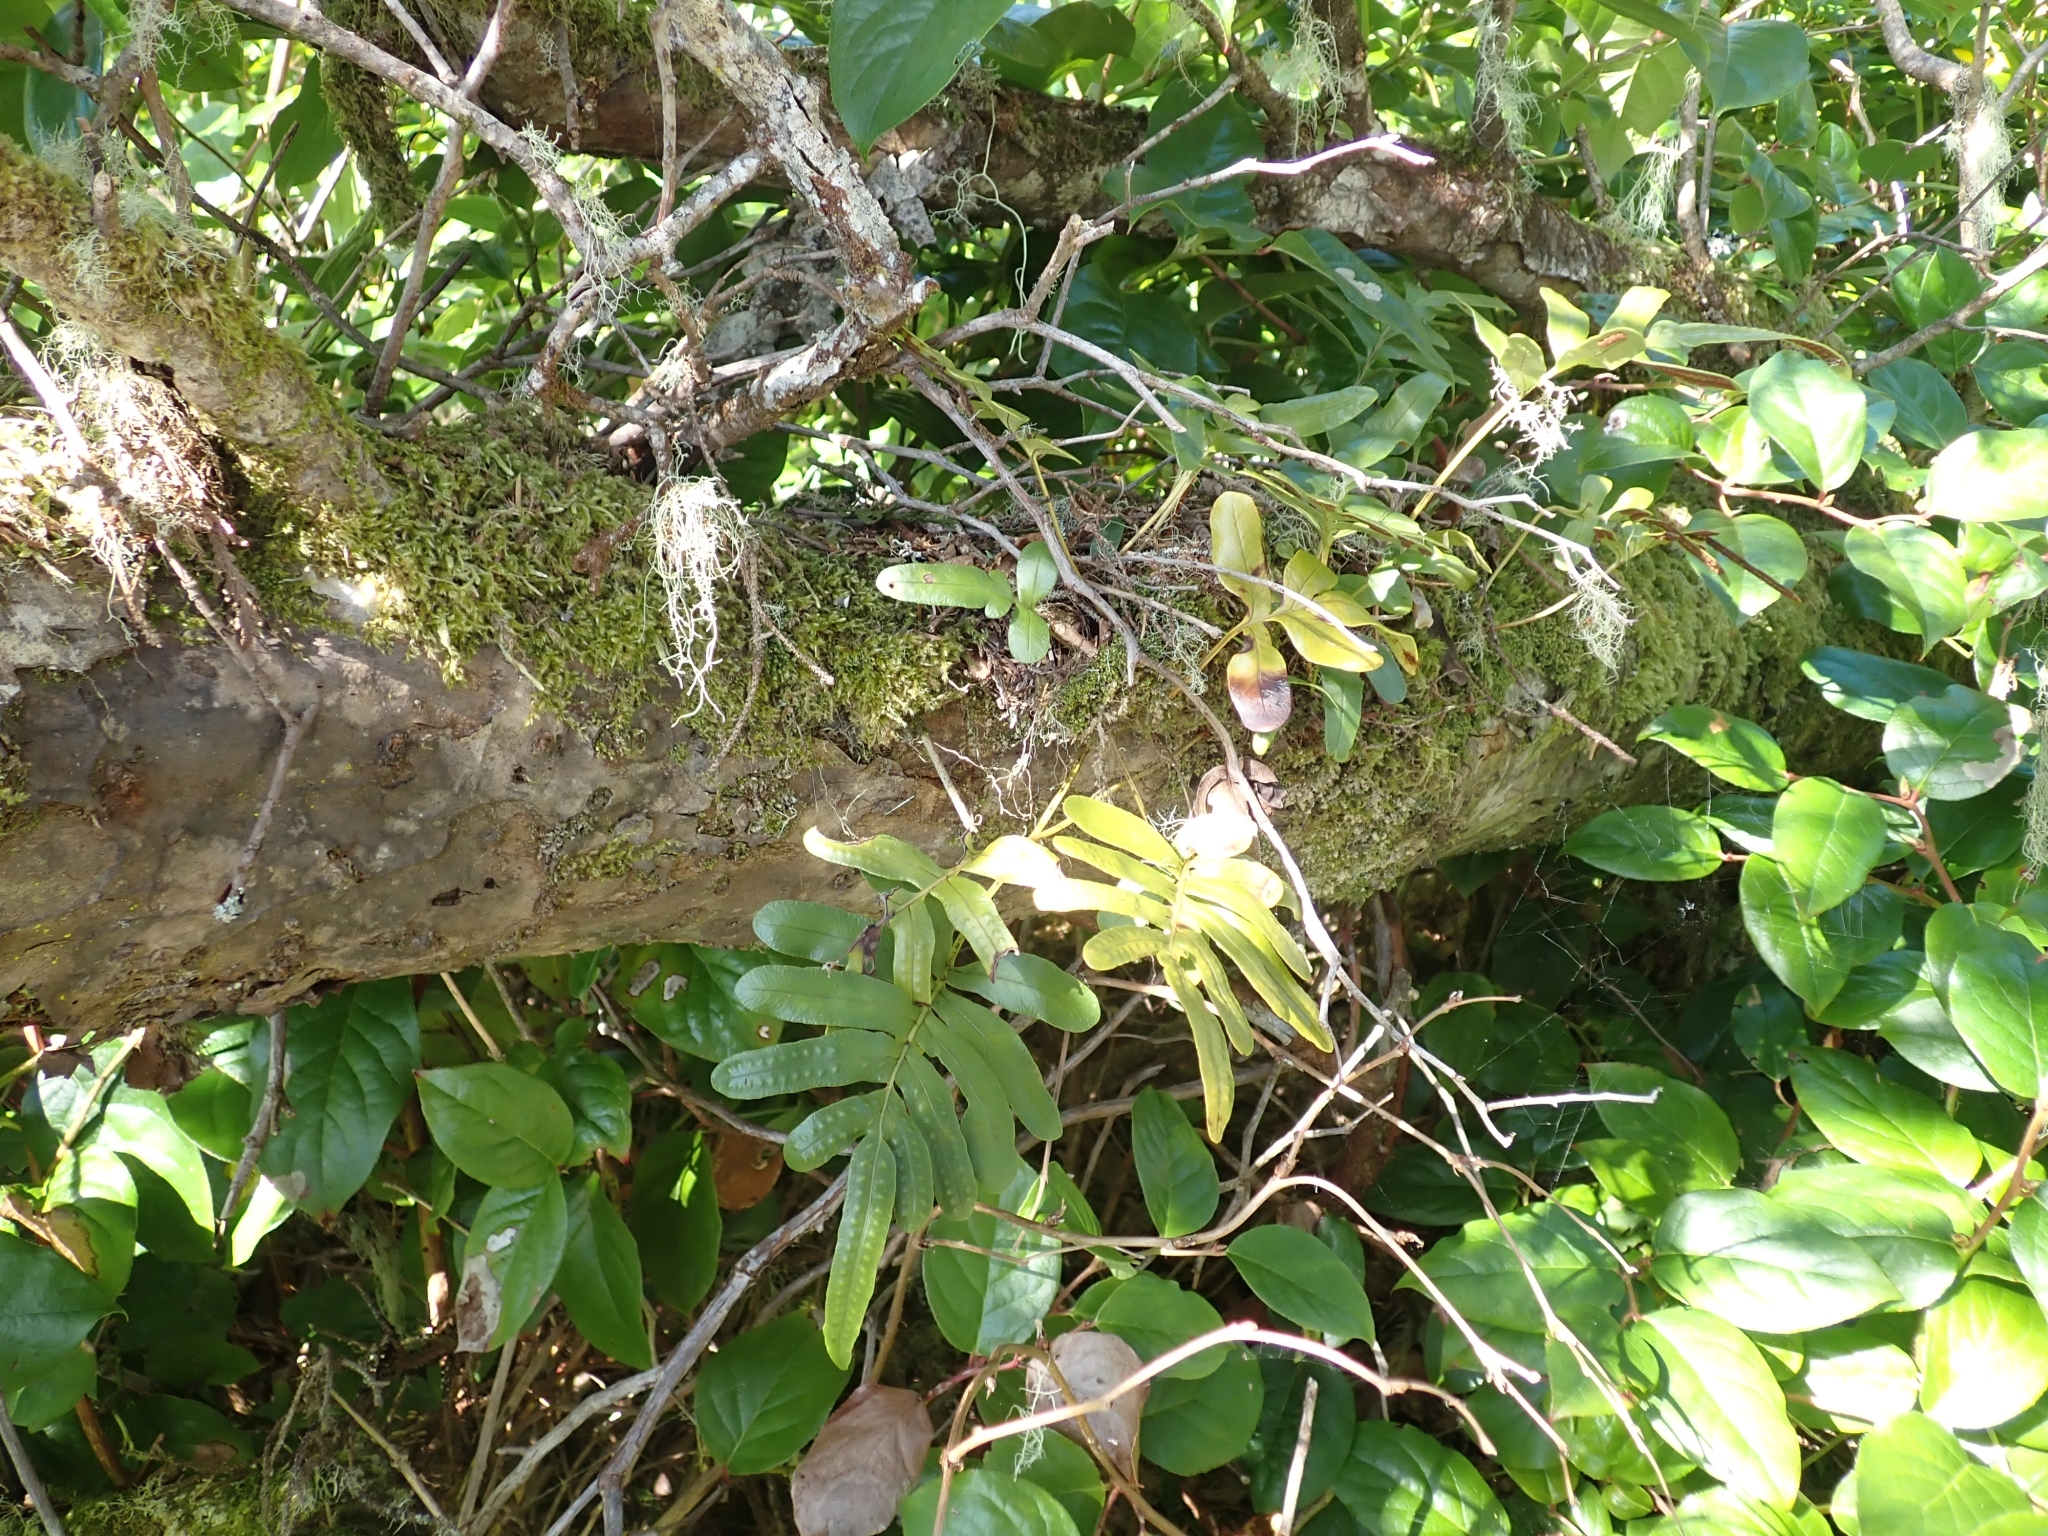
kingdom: Plantae
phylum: Tracheophyta
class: Polypodiopsida
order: Polypodiales
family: Polypodiaceae
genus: Polypodium
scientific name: Polypodium scouleri
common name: Scouler's polypody
